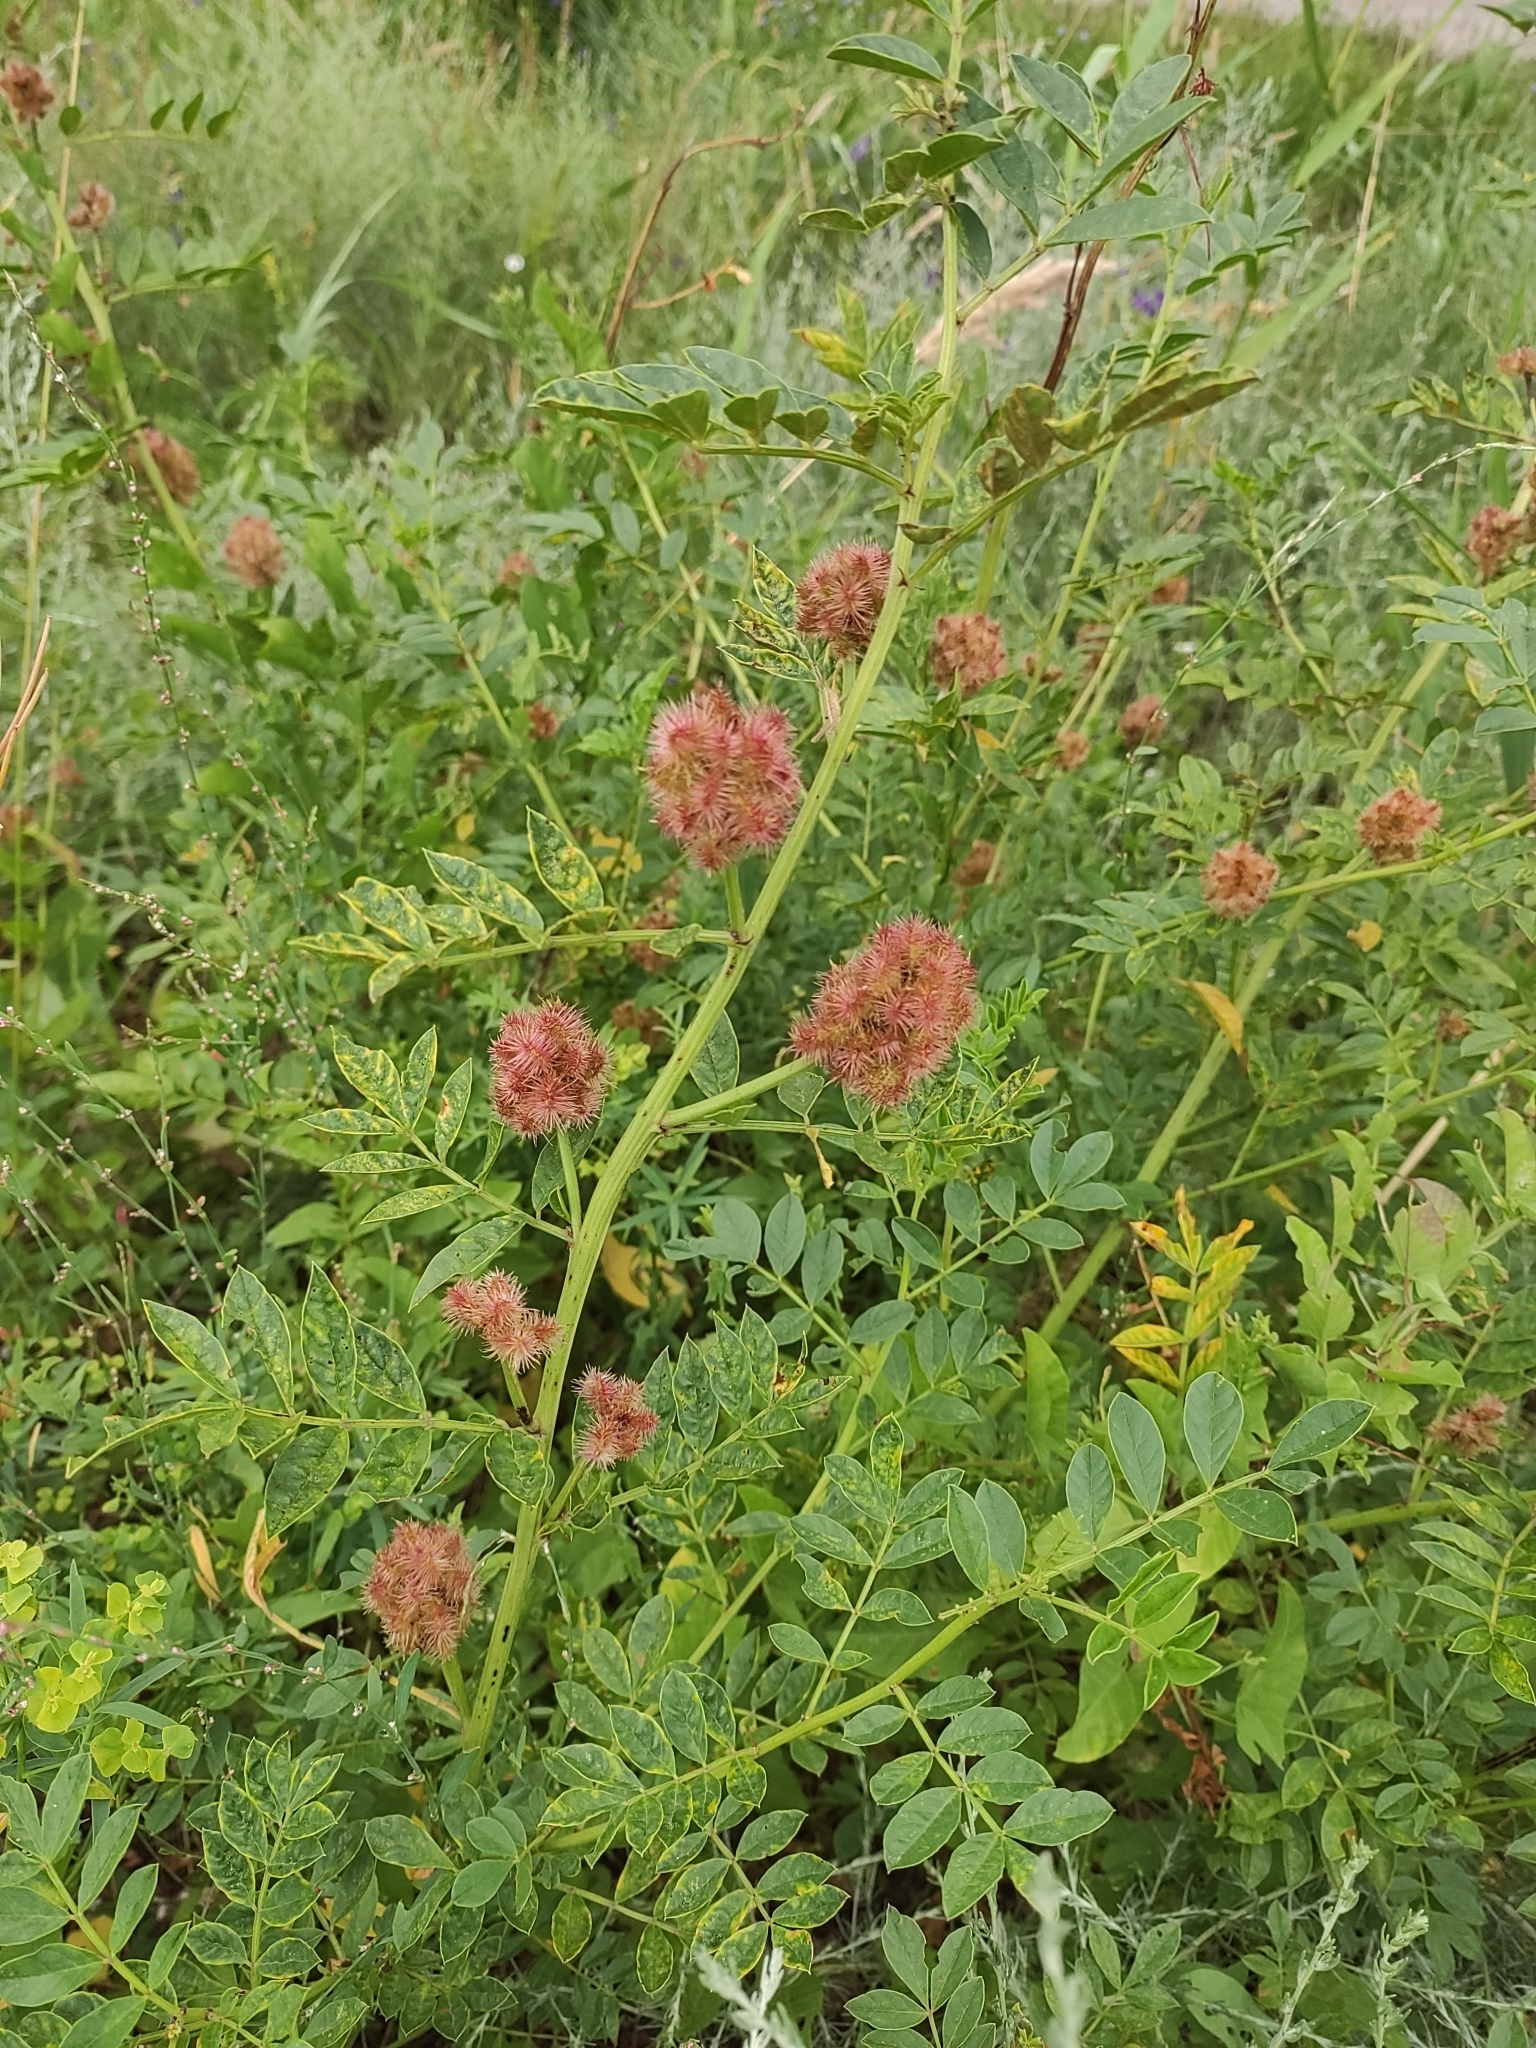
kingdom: Plantae
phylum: Tracheophyta
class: Magnoliopsida
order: Fabales
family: Fabaceae
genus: Glycyrrhiza
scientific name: Glycyrrhiza echinata
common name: German liquorice
